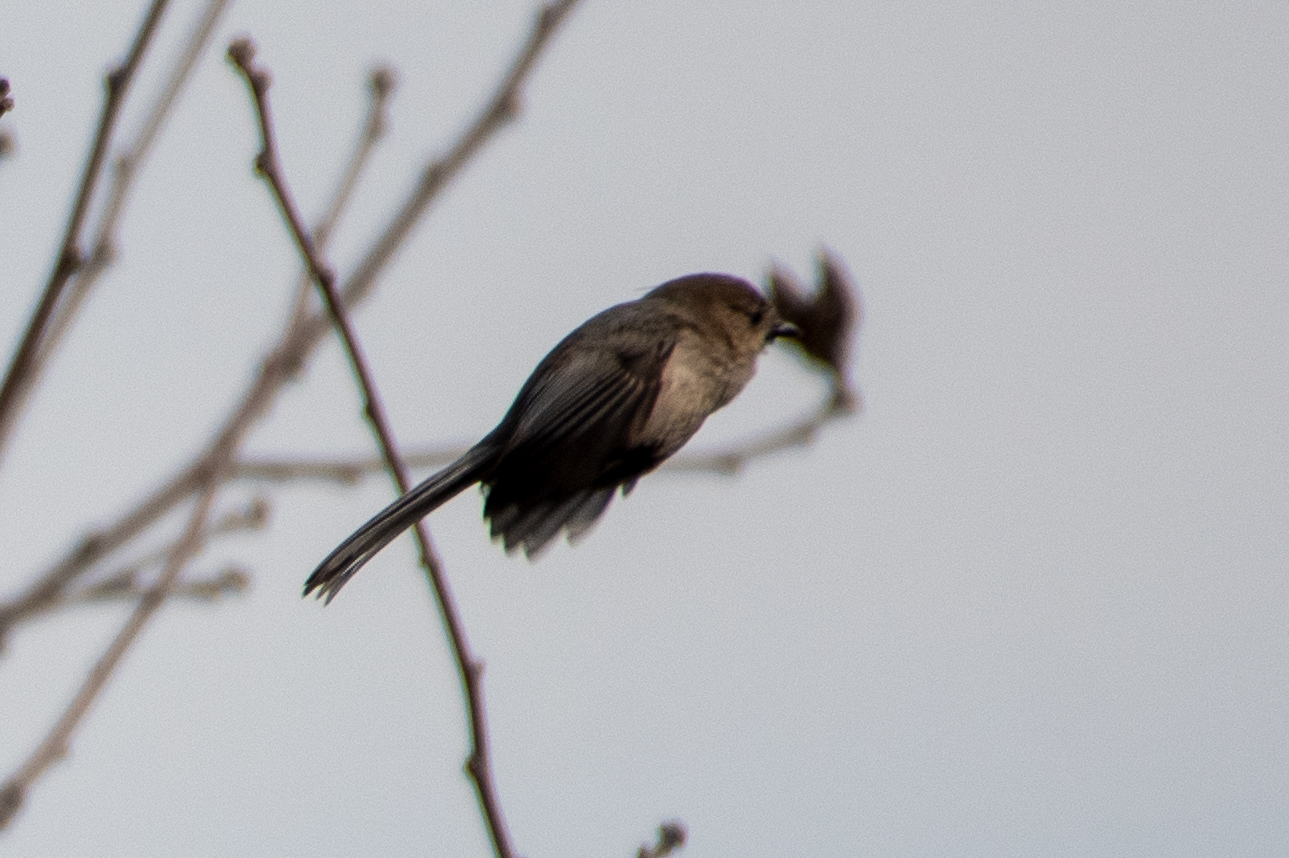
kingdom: Animalia
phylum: Chordata
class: Aves
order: Passeriformes
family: Aegithalidae
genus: Psaltriparus
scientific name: Psaltriparus minimus
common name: American bushtit
